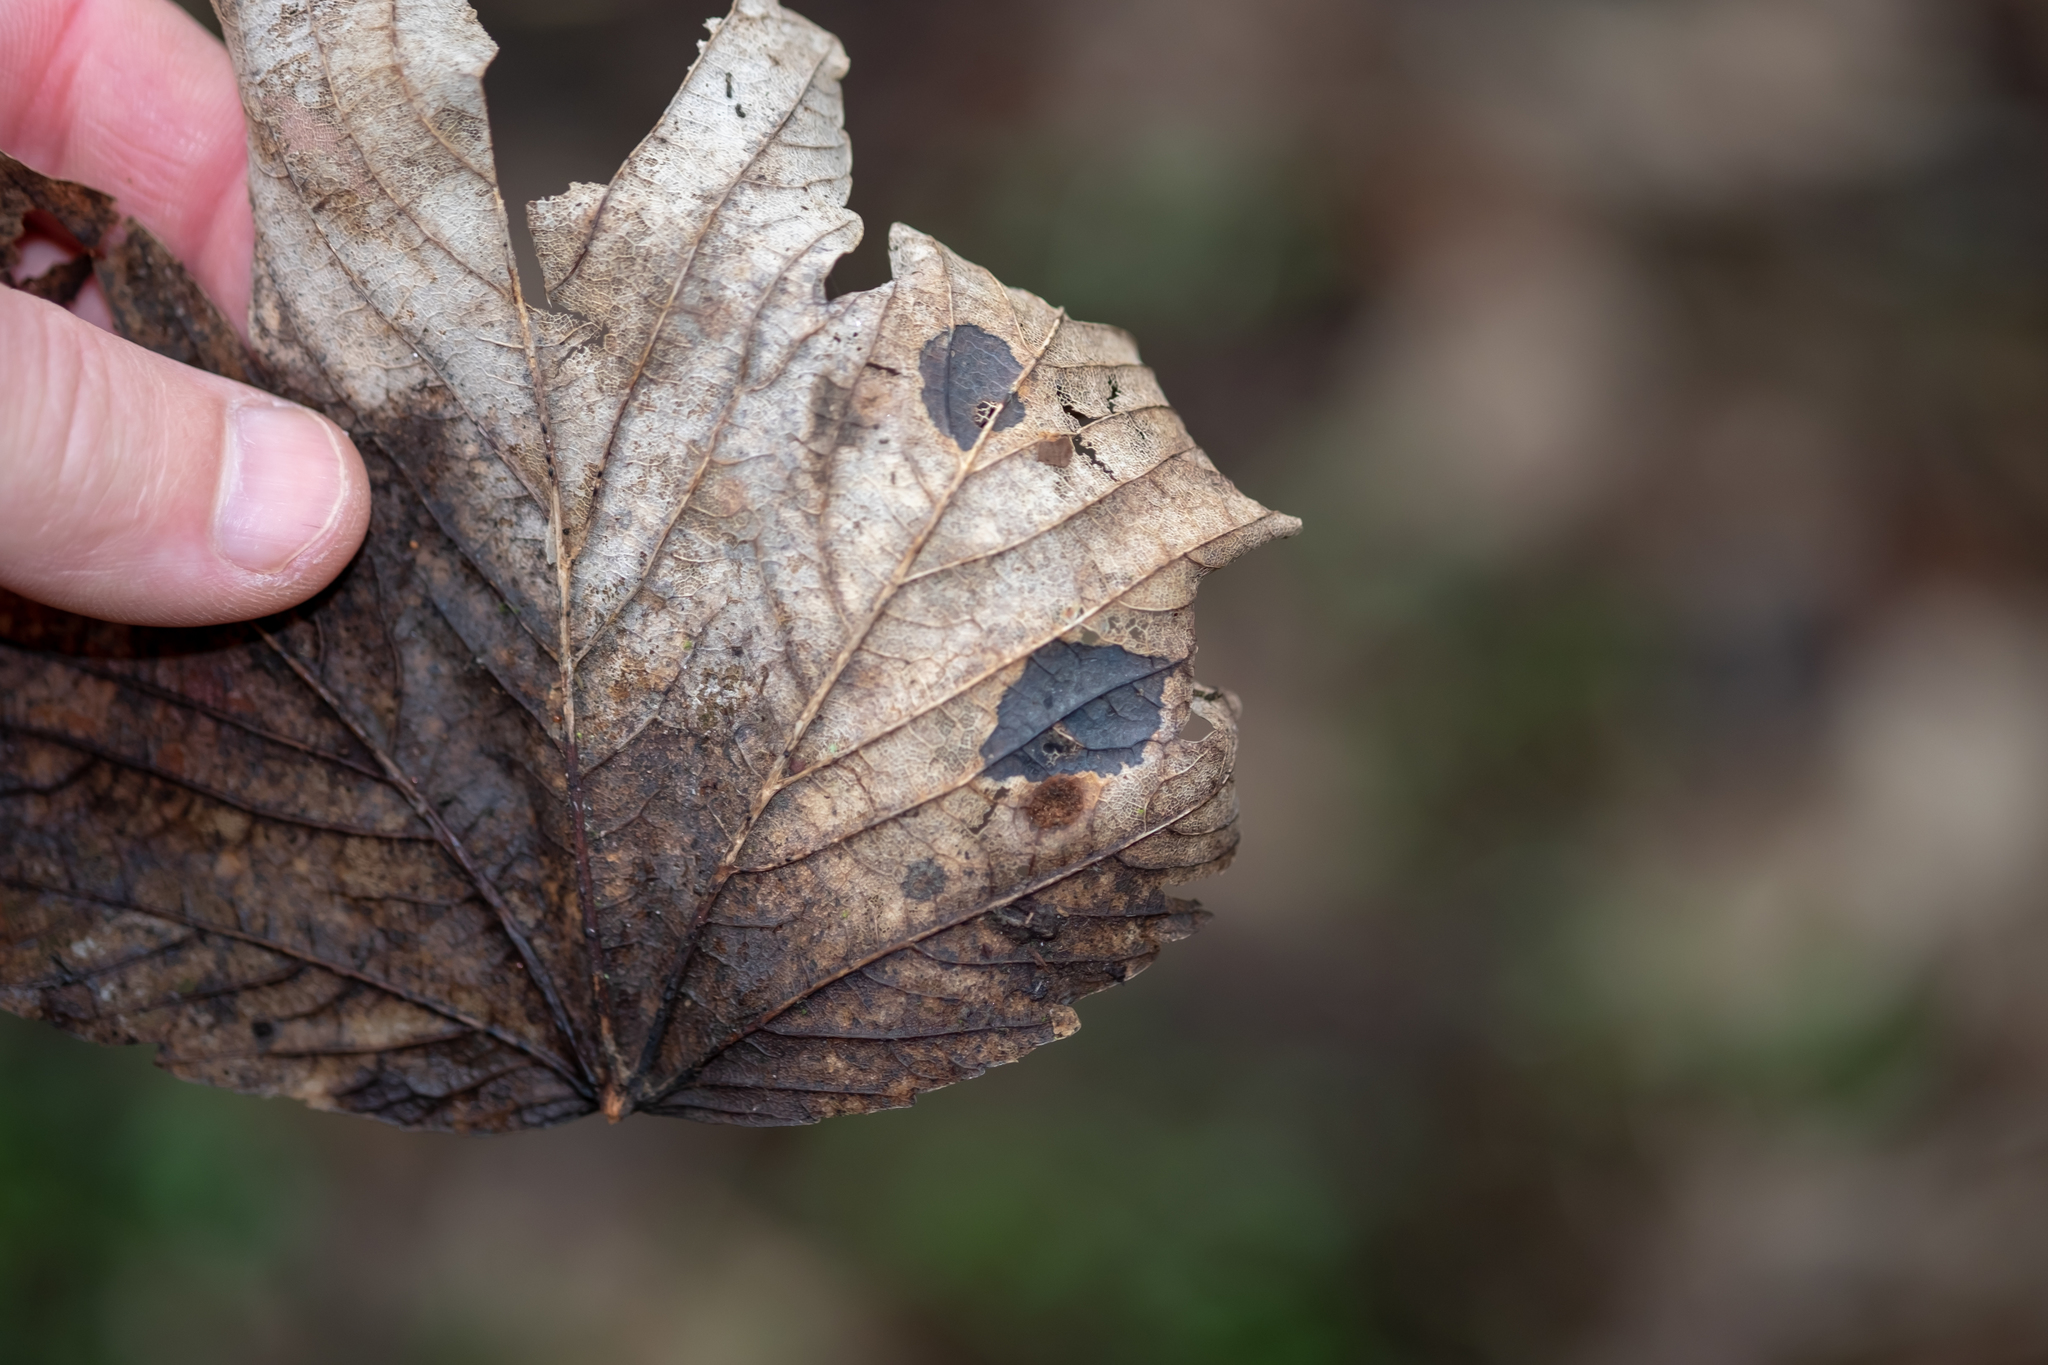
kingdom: Fungi
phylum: Ascomycota
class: Leotiomycetes
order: Rhytismatales
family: Rhytismataceae
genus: Rhytisma
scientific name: Rhytisma acerinum
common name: European tar spot
